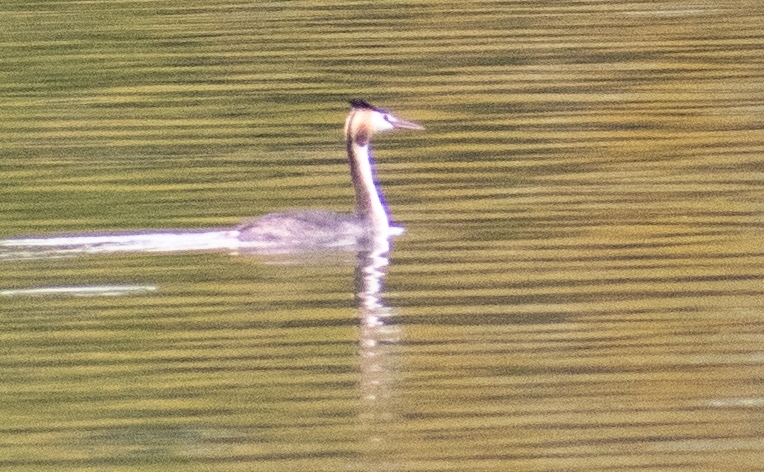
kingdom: Animalia
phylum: Chordata
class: Aves
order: Podicipediformes
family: Podicipedidae
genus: Podiceps
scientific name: Podiceps cristatus
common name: Great crested grebe
